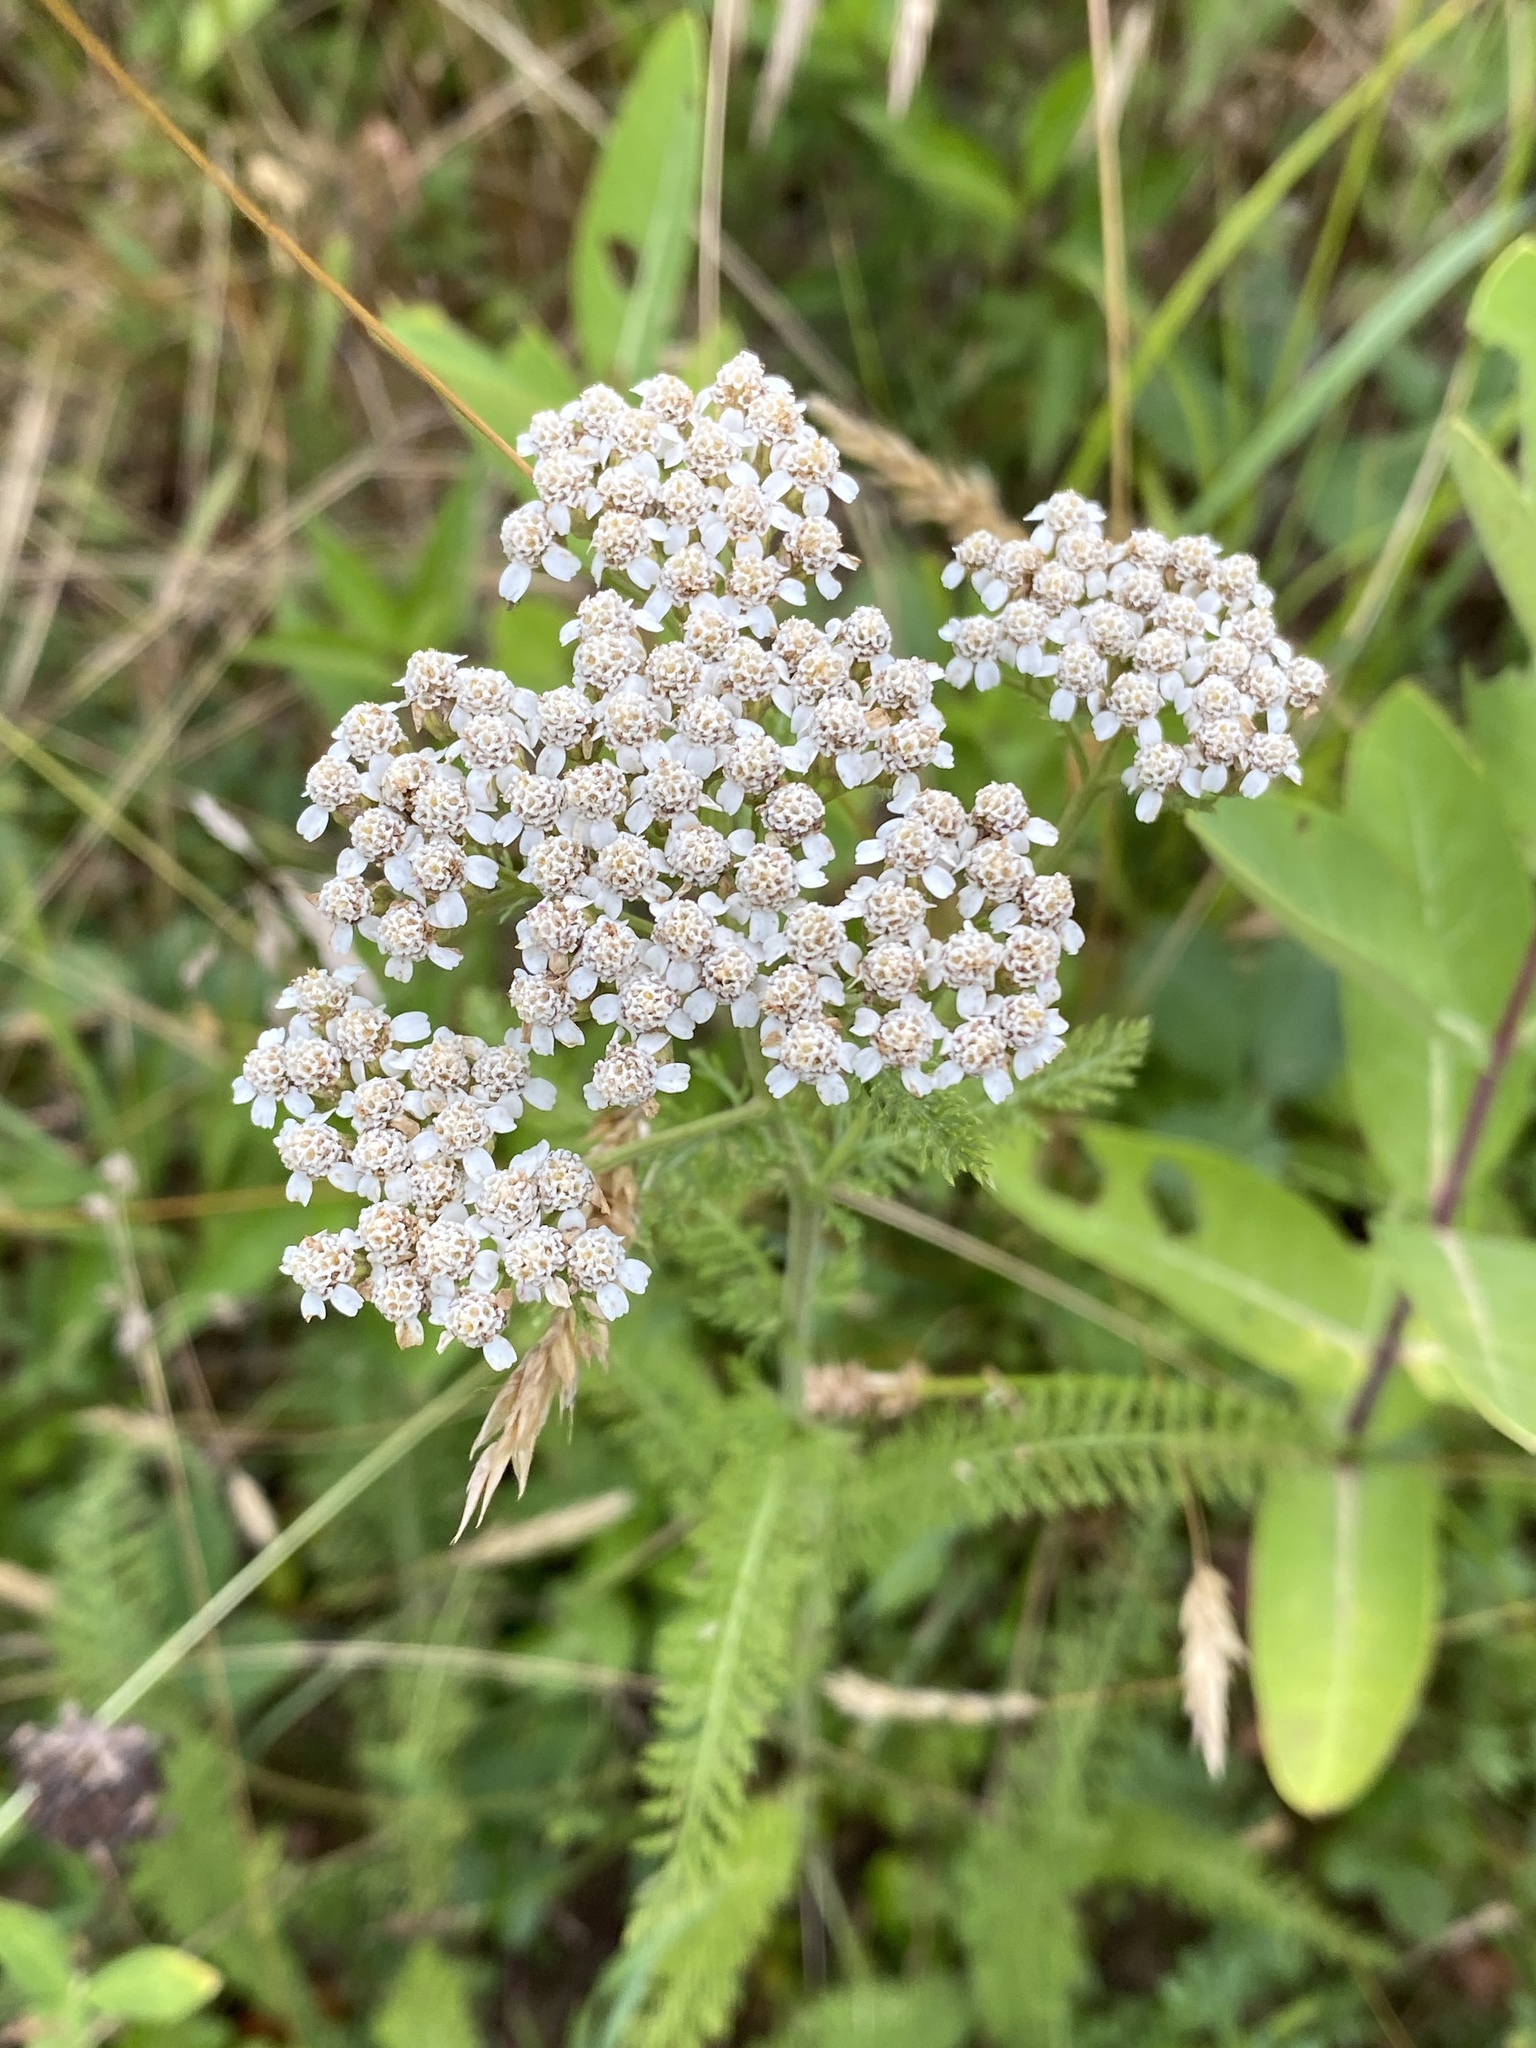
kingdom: Plantae
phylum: Tracheophyta
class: Magnoliopsida
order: Asterales
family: Asteraceae
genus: Achillea
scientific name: Achillea millefolium
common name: Yarrow
